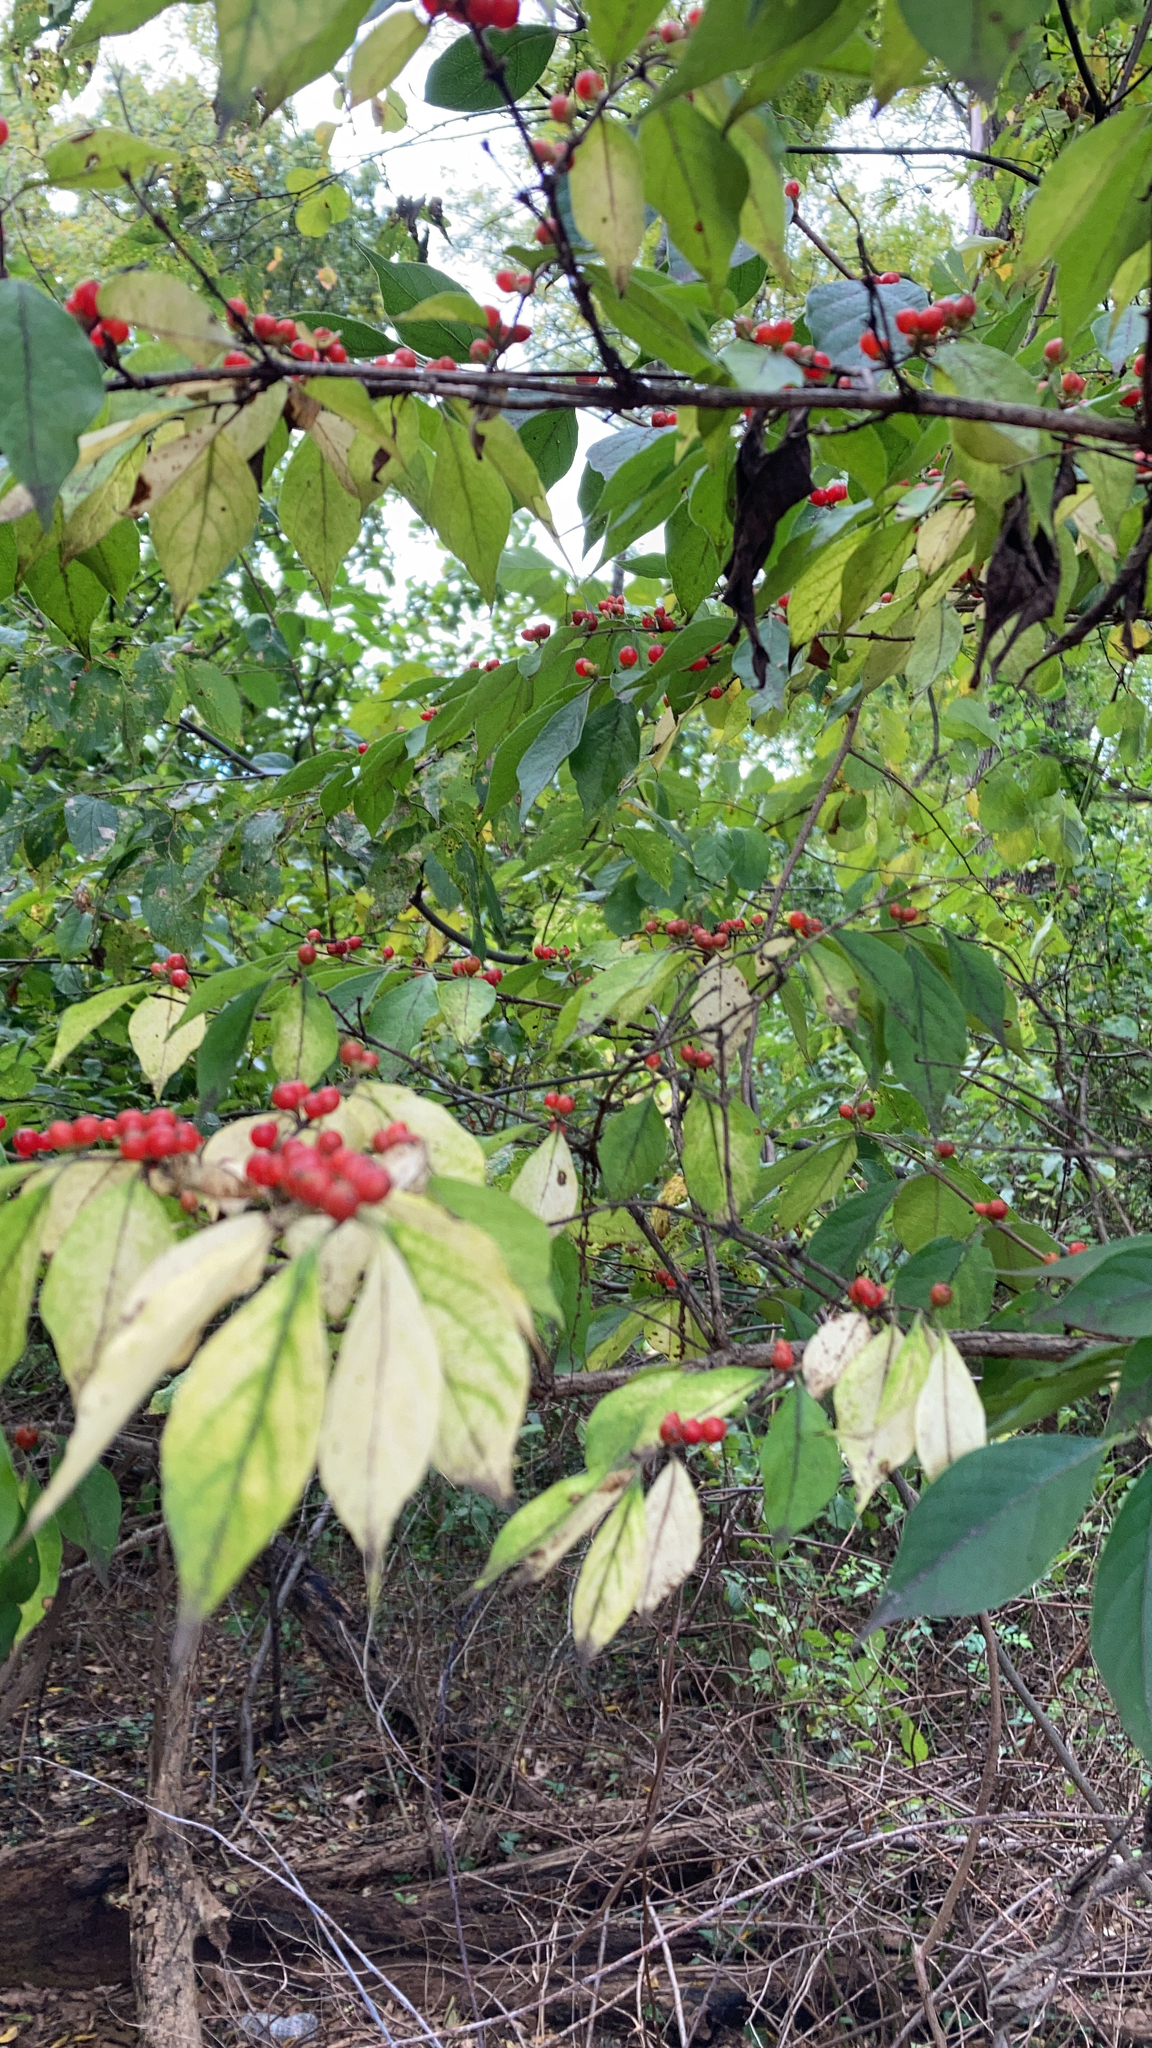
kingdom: Plantae
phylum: Tracheophyta
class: Magnoliopsida
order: Dipsacales
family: Caprifoliaceae
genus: Lonicera
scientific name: Lonicera maackii
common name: Amur honeysuckle
